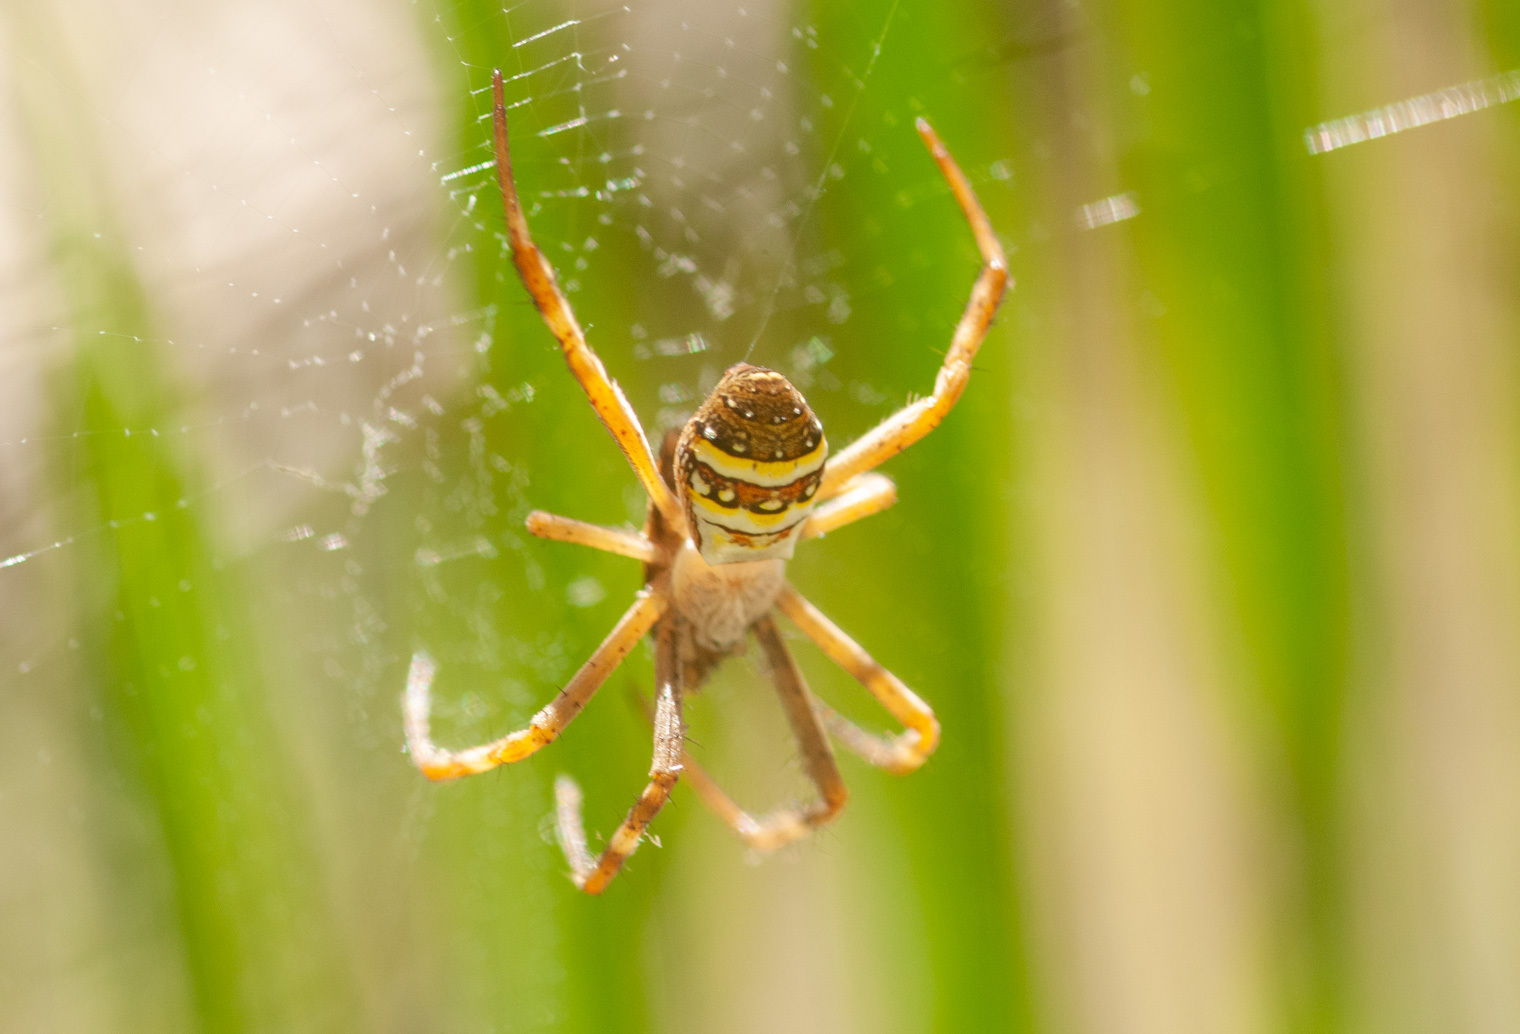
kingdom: Animalia
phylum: Arthropoda
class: Arachnida
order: Araneae
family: Araneidae
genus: Argiope
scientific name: Argiope keyserlingi
